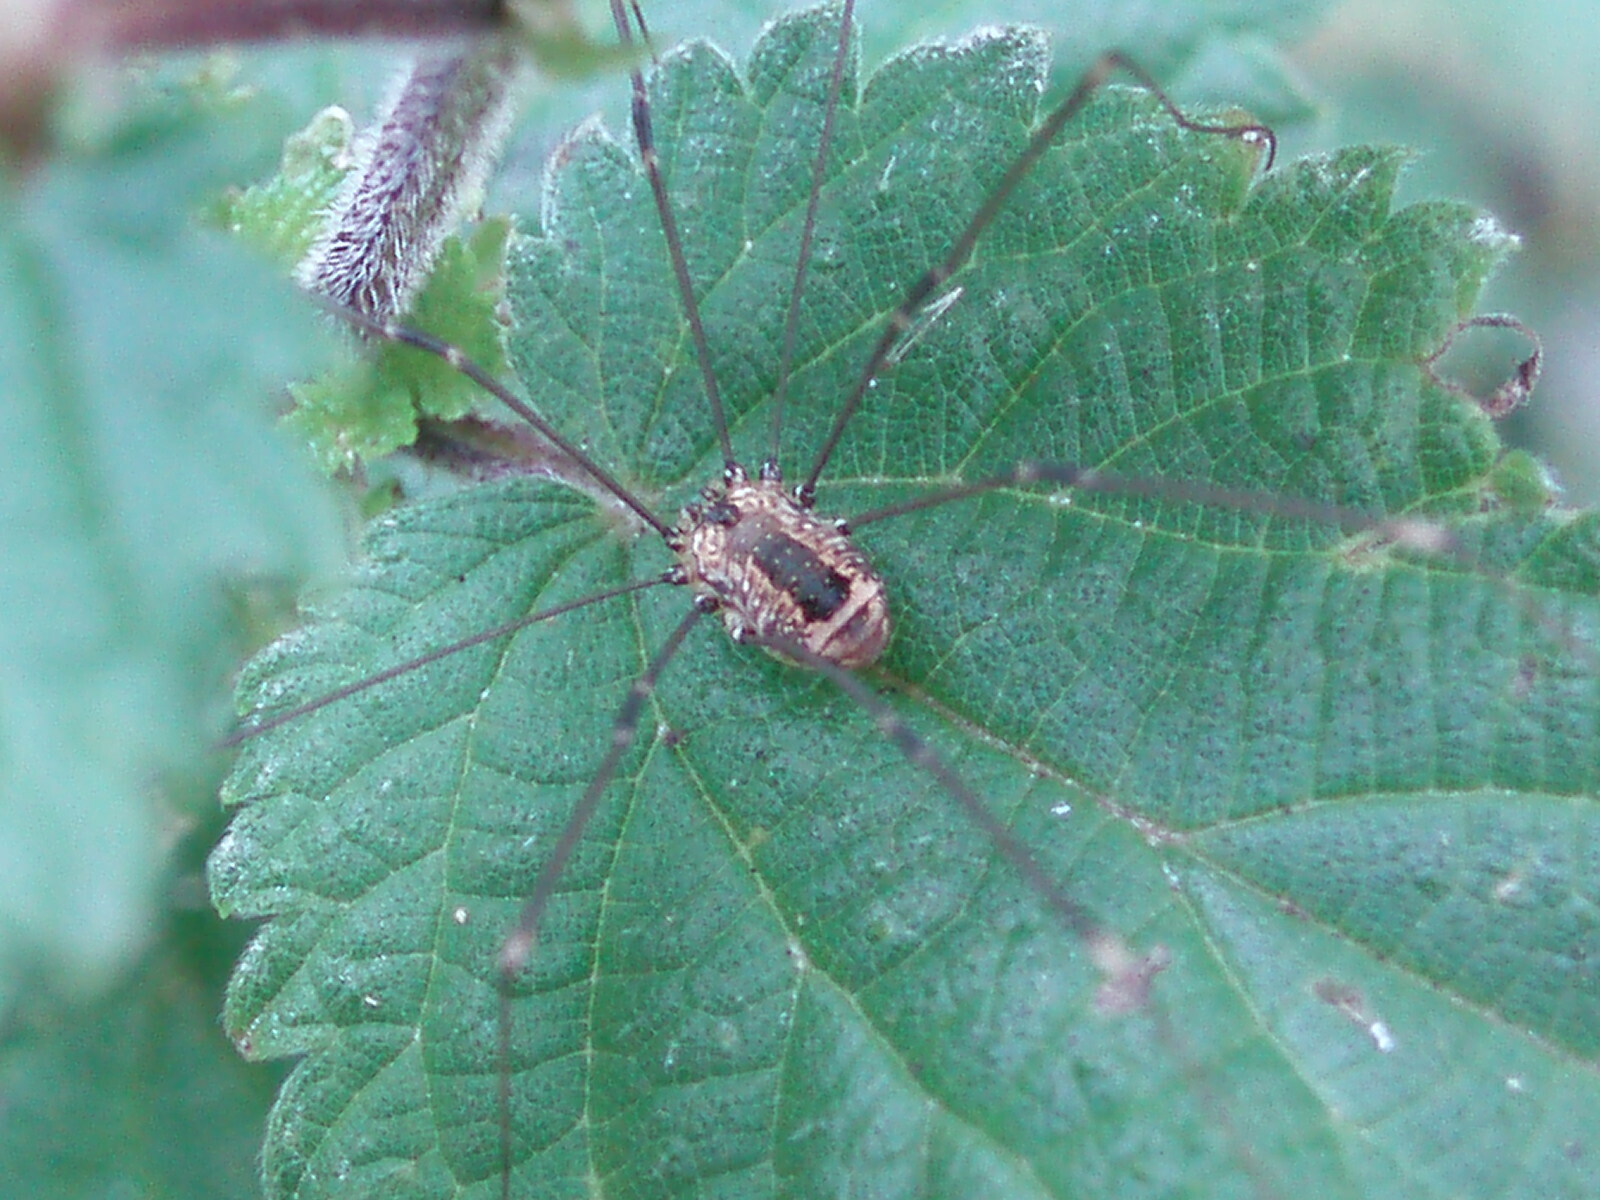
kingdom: Animalia
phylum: Arthropoda
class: Arachnida
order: Opiliones
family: Sclerosomatidae
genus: Leiobunum
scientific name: Leiobunum rotundum
